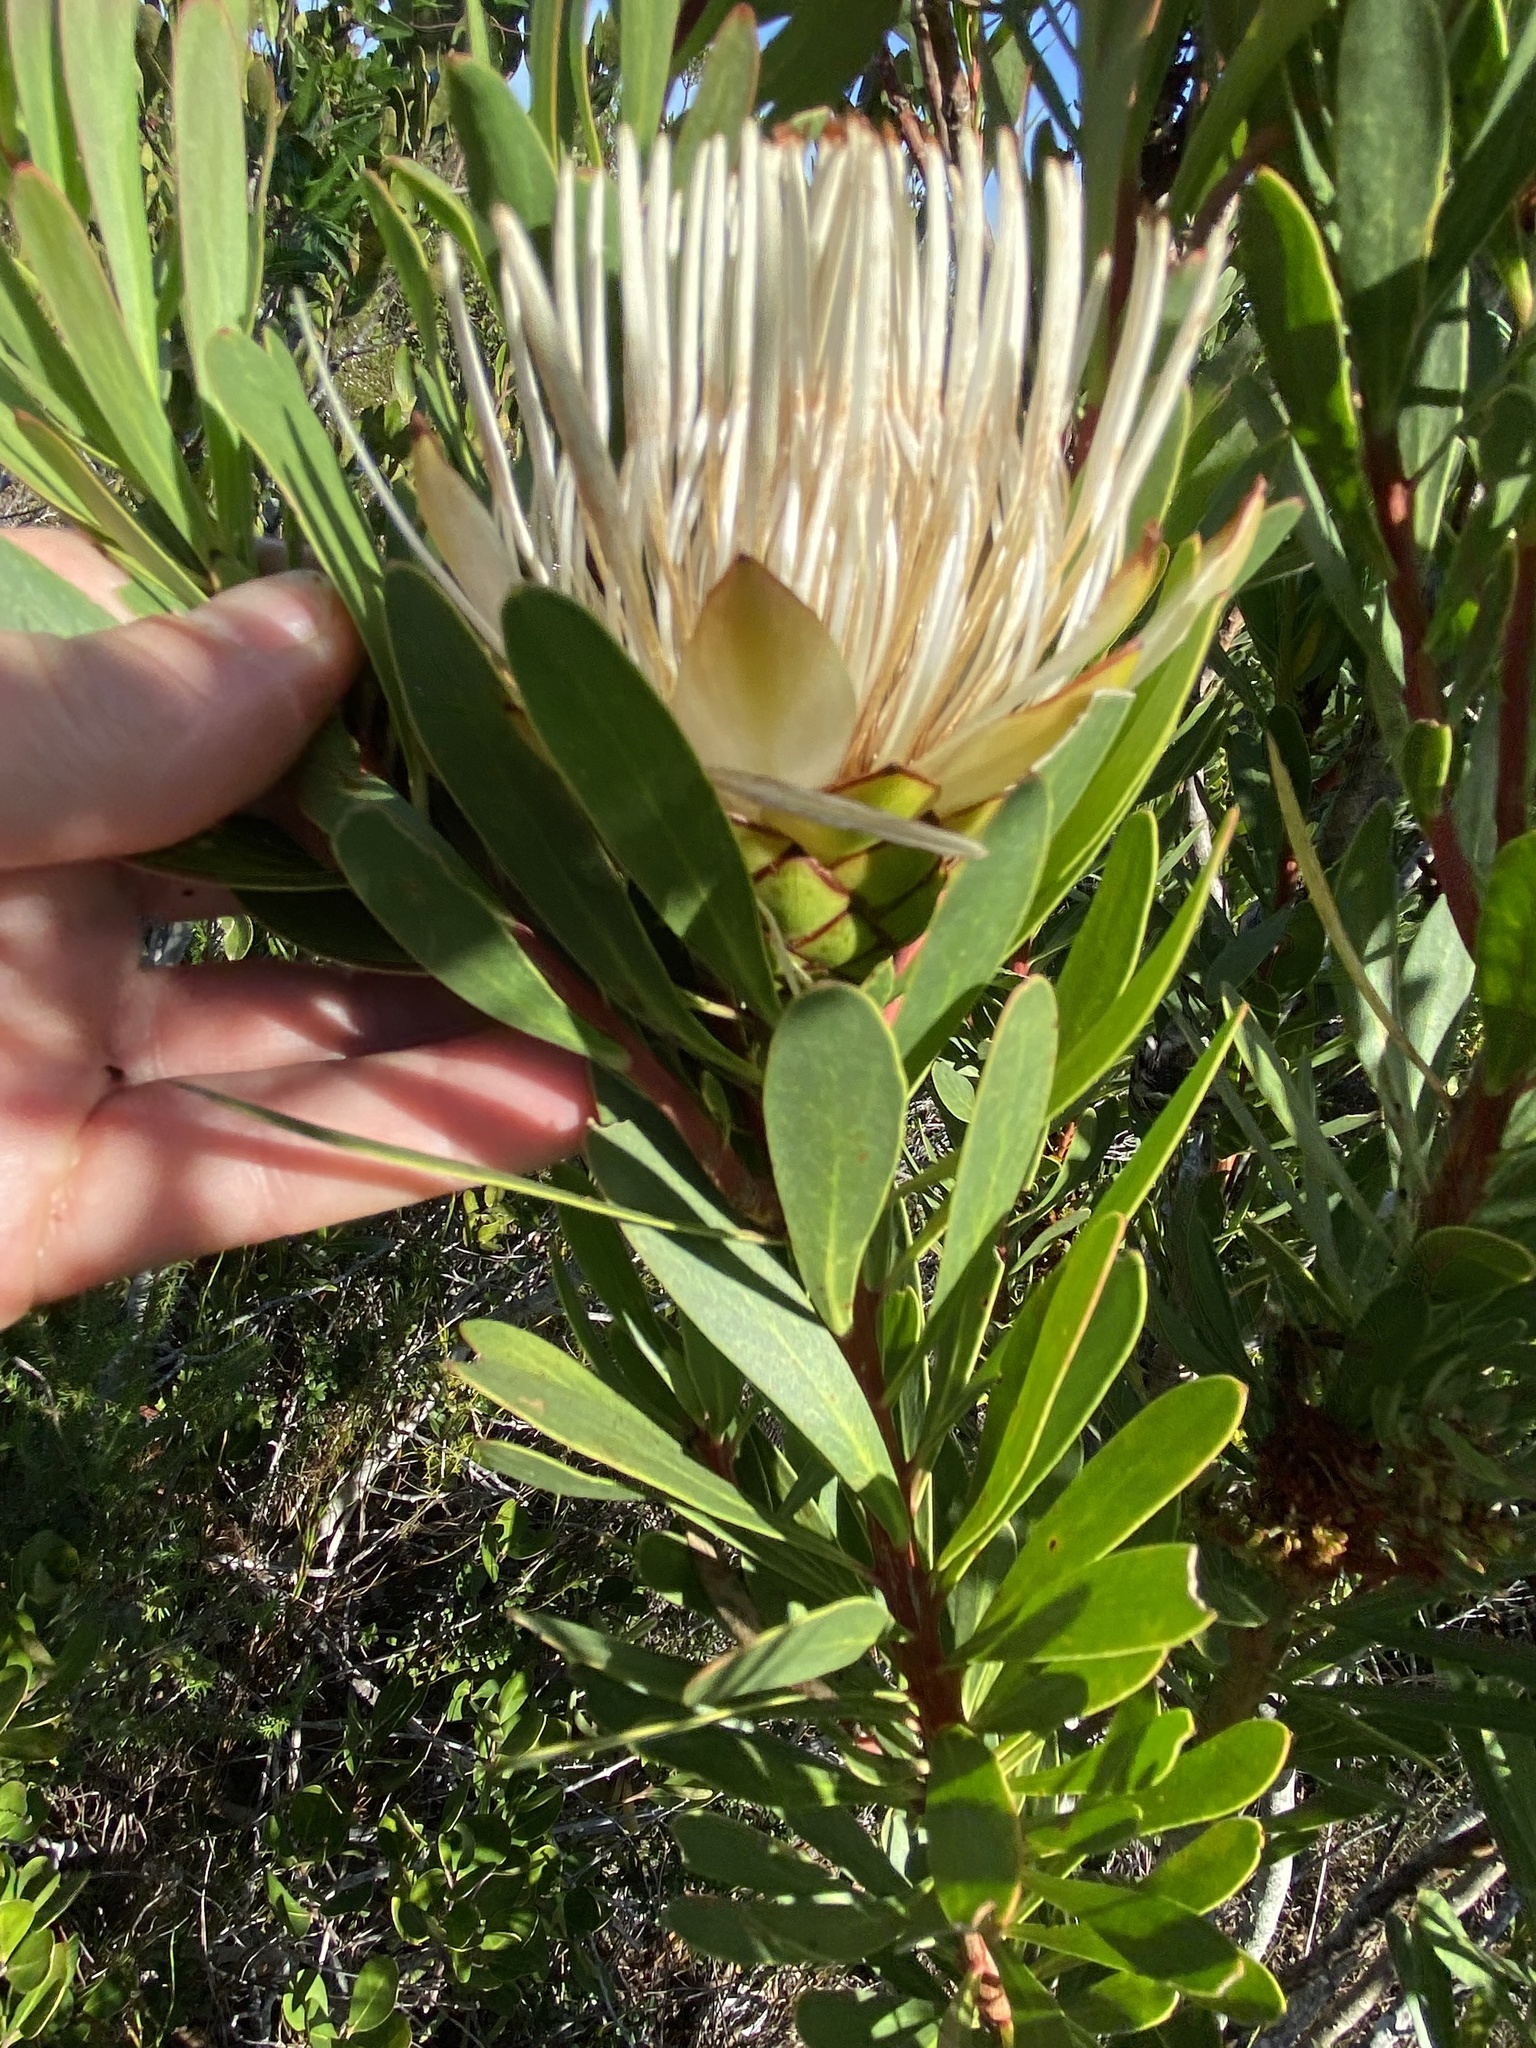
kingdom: Plantae
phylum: Tracheophyta
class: Magnoliopsida
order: Proteales
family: Proteaceae
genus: Protea
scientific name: Protea lanceolata
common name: Lance-leaved protea
